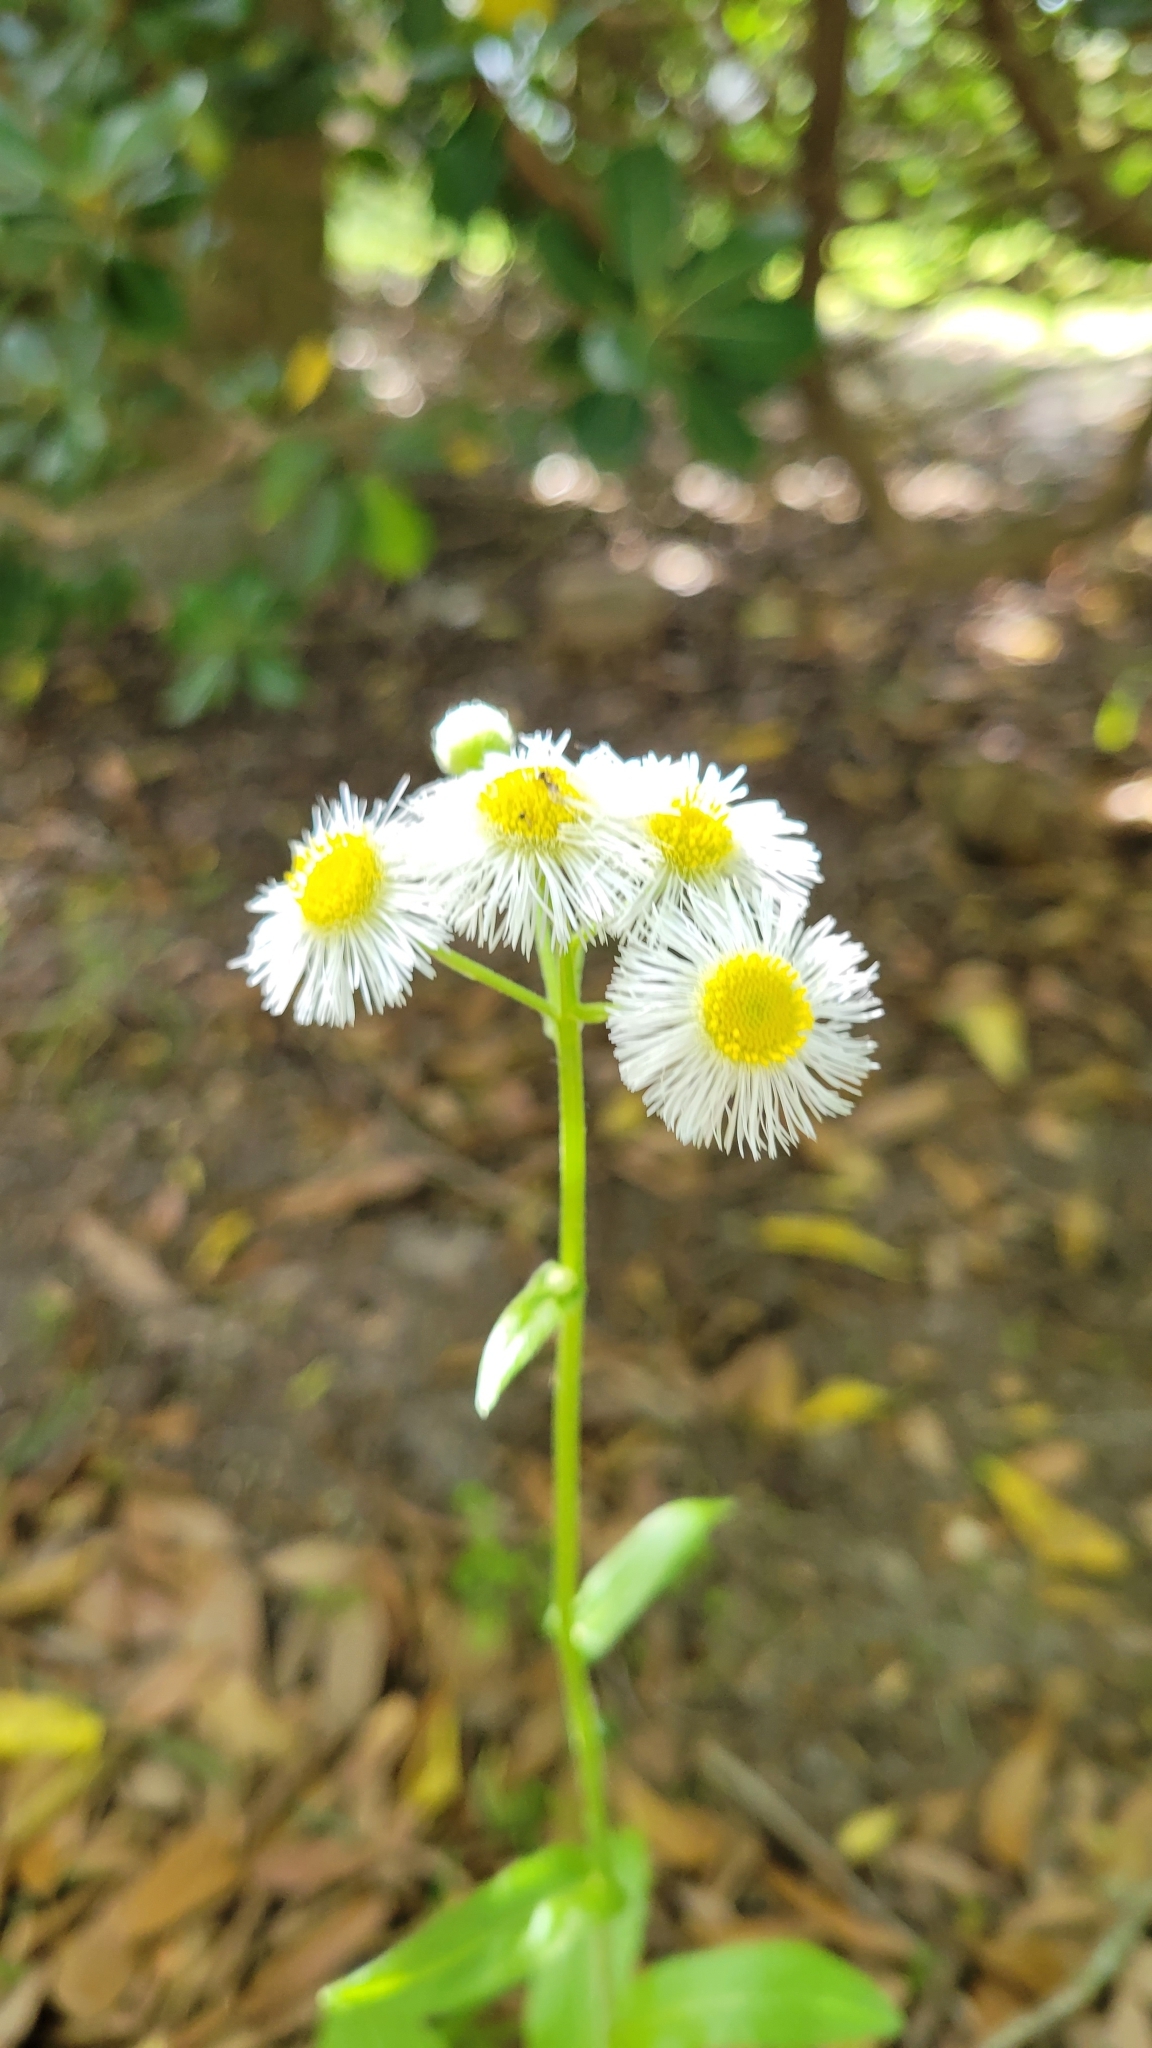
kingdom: Plantae
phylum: Tracheophyta
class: Magnoliopsida
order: Asterales
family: Asteraceae
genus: Erigeron
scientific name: Erigeron philadelphicus
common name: Robin's-plantain
